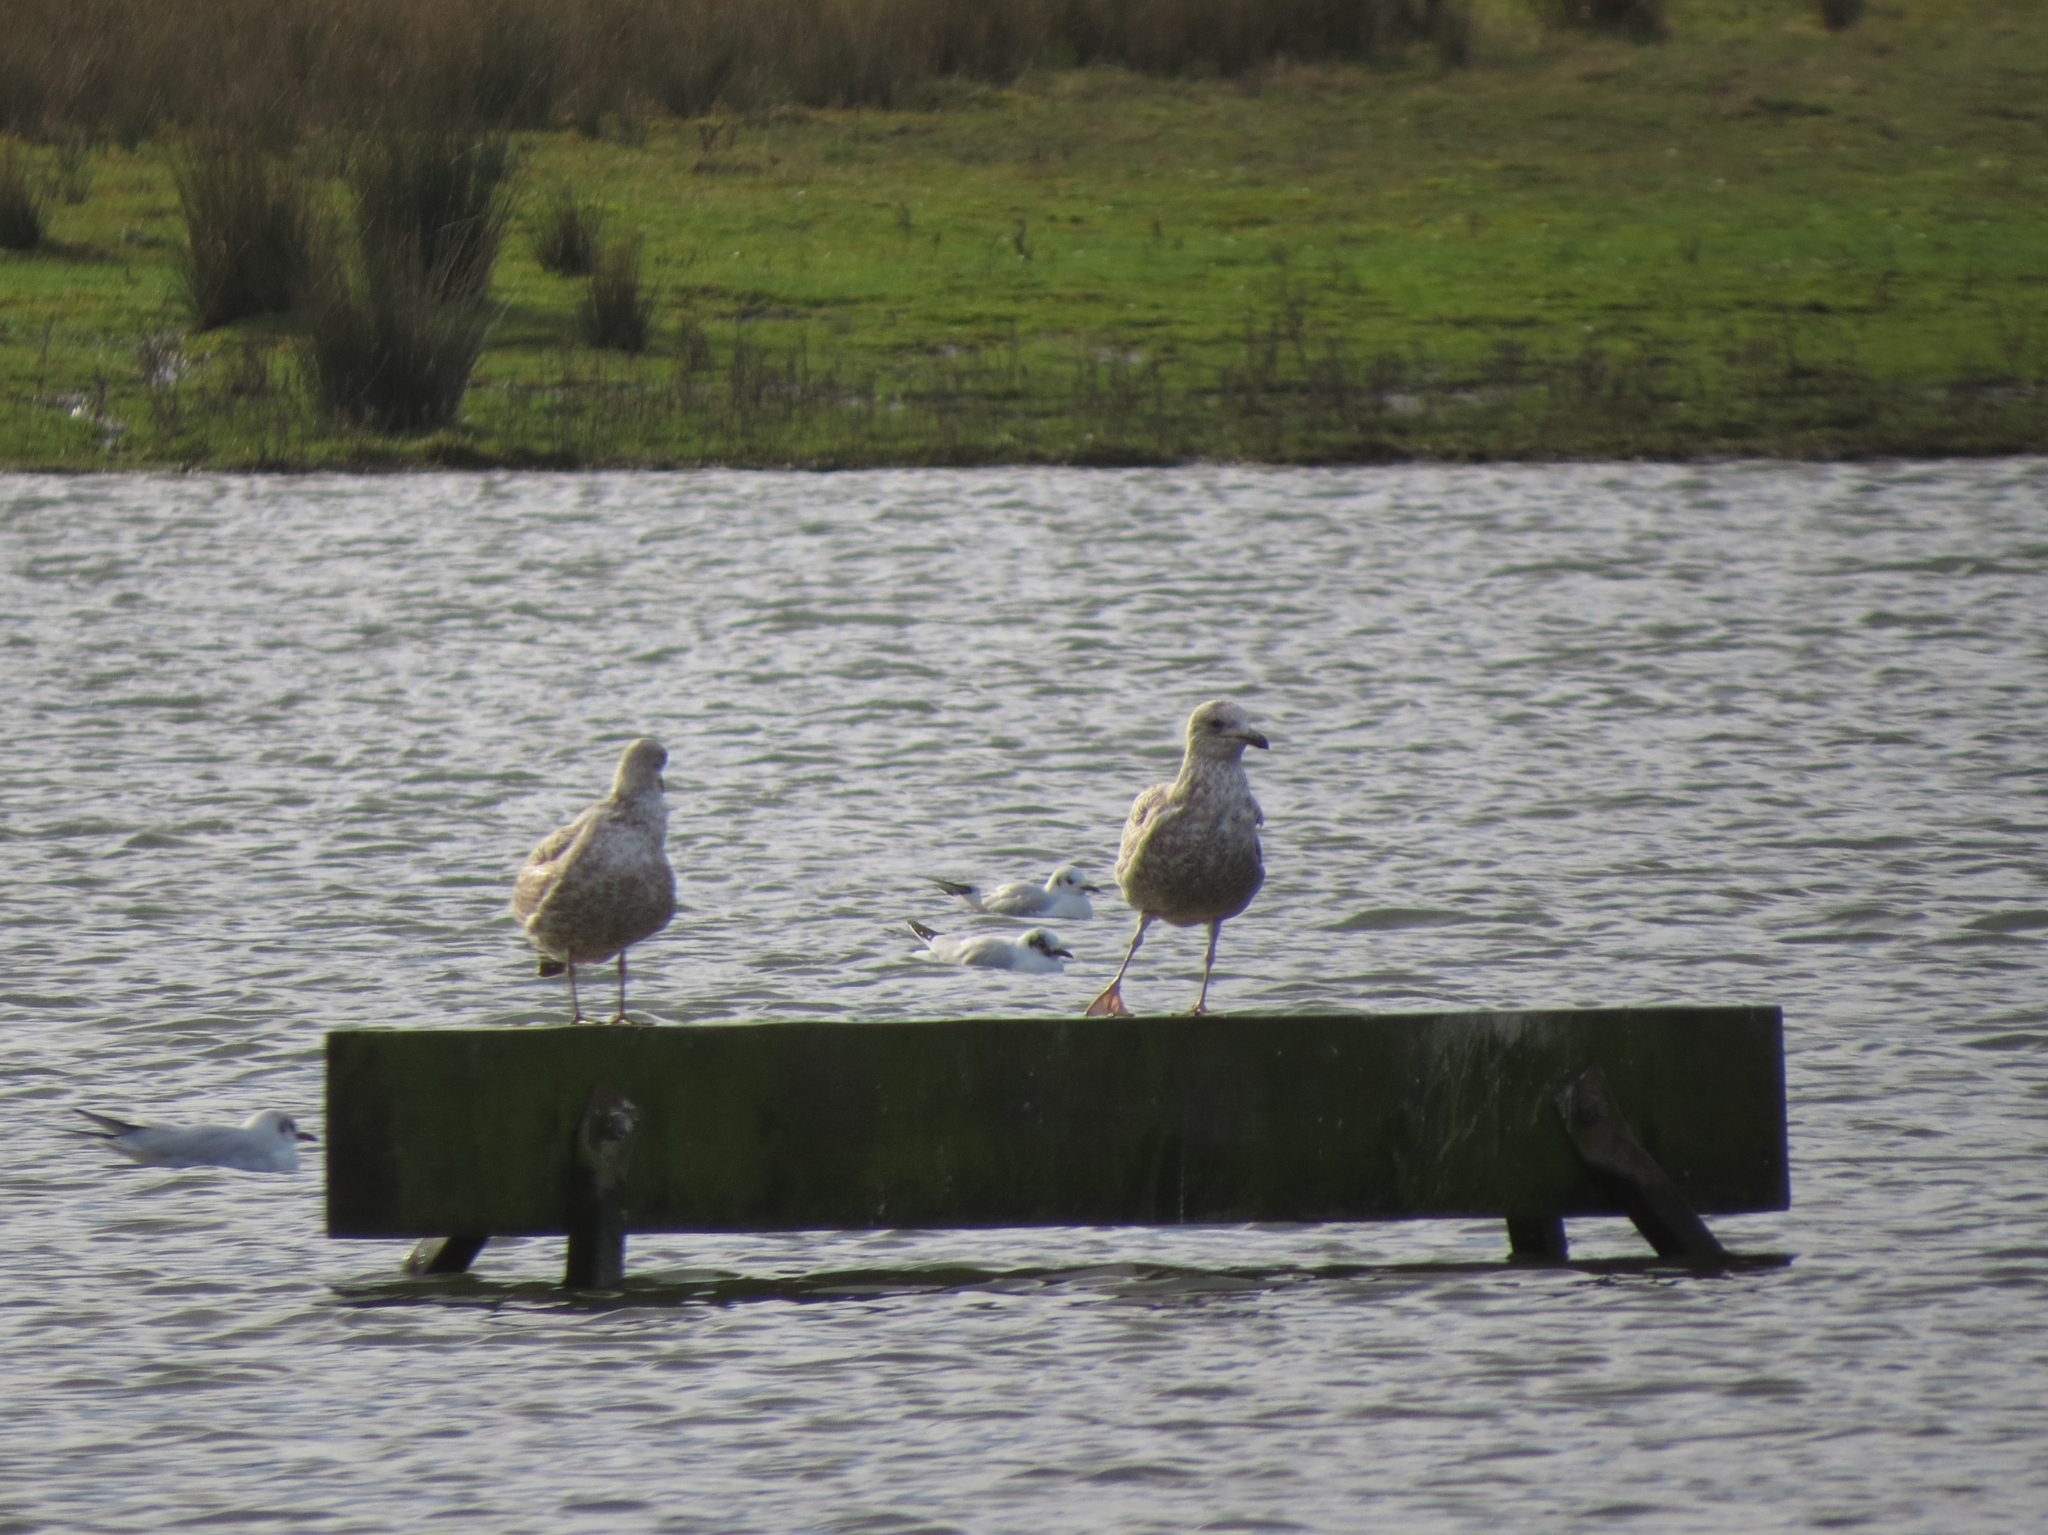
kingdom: Animalia
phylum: Chordata
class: Aves
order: Charadriiformes
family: Laridae
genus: Larus
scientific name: Larus argentatus
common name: Herring gull
